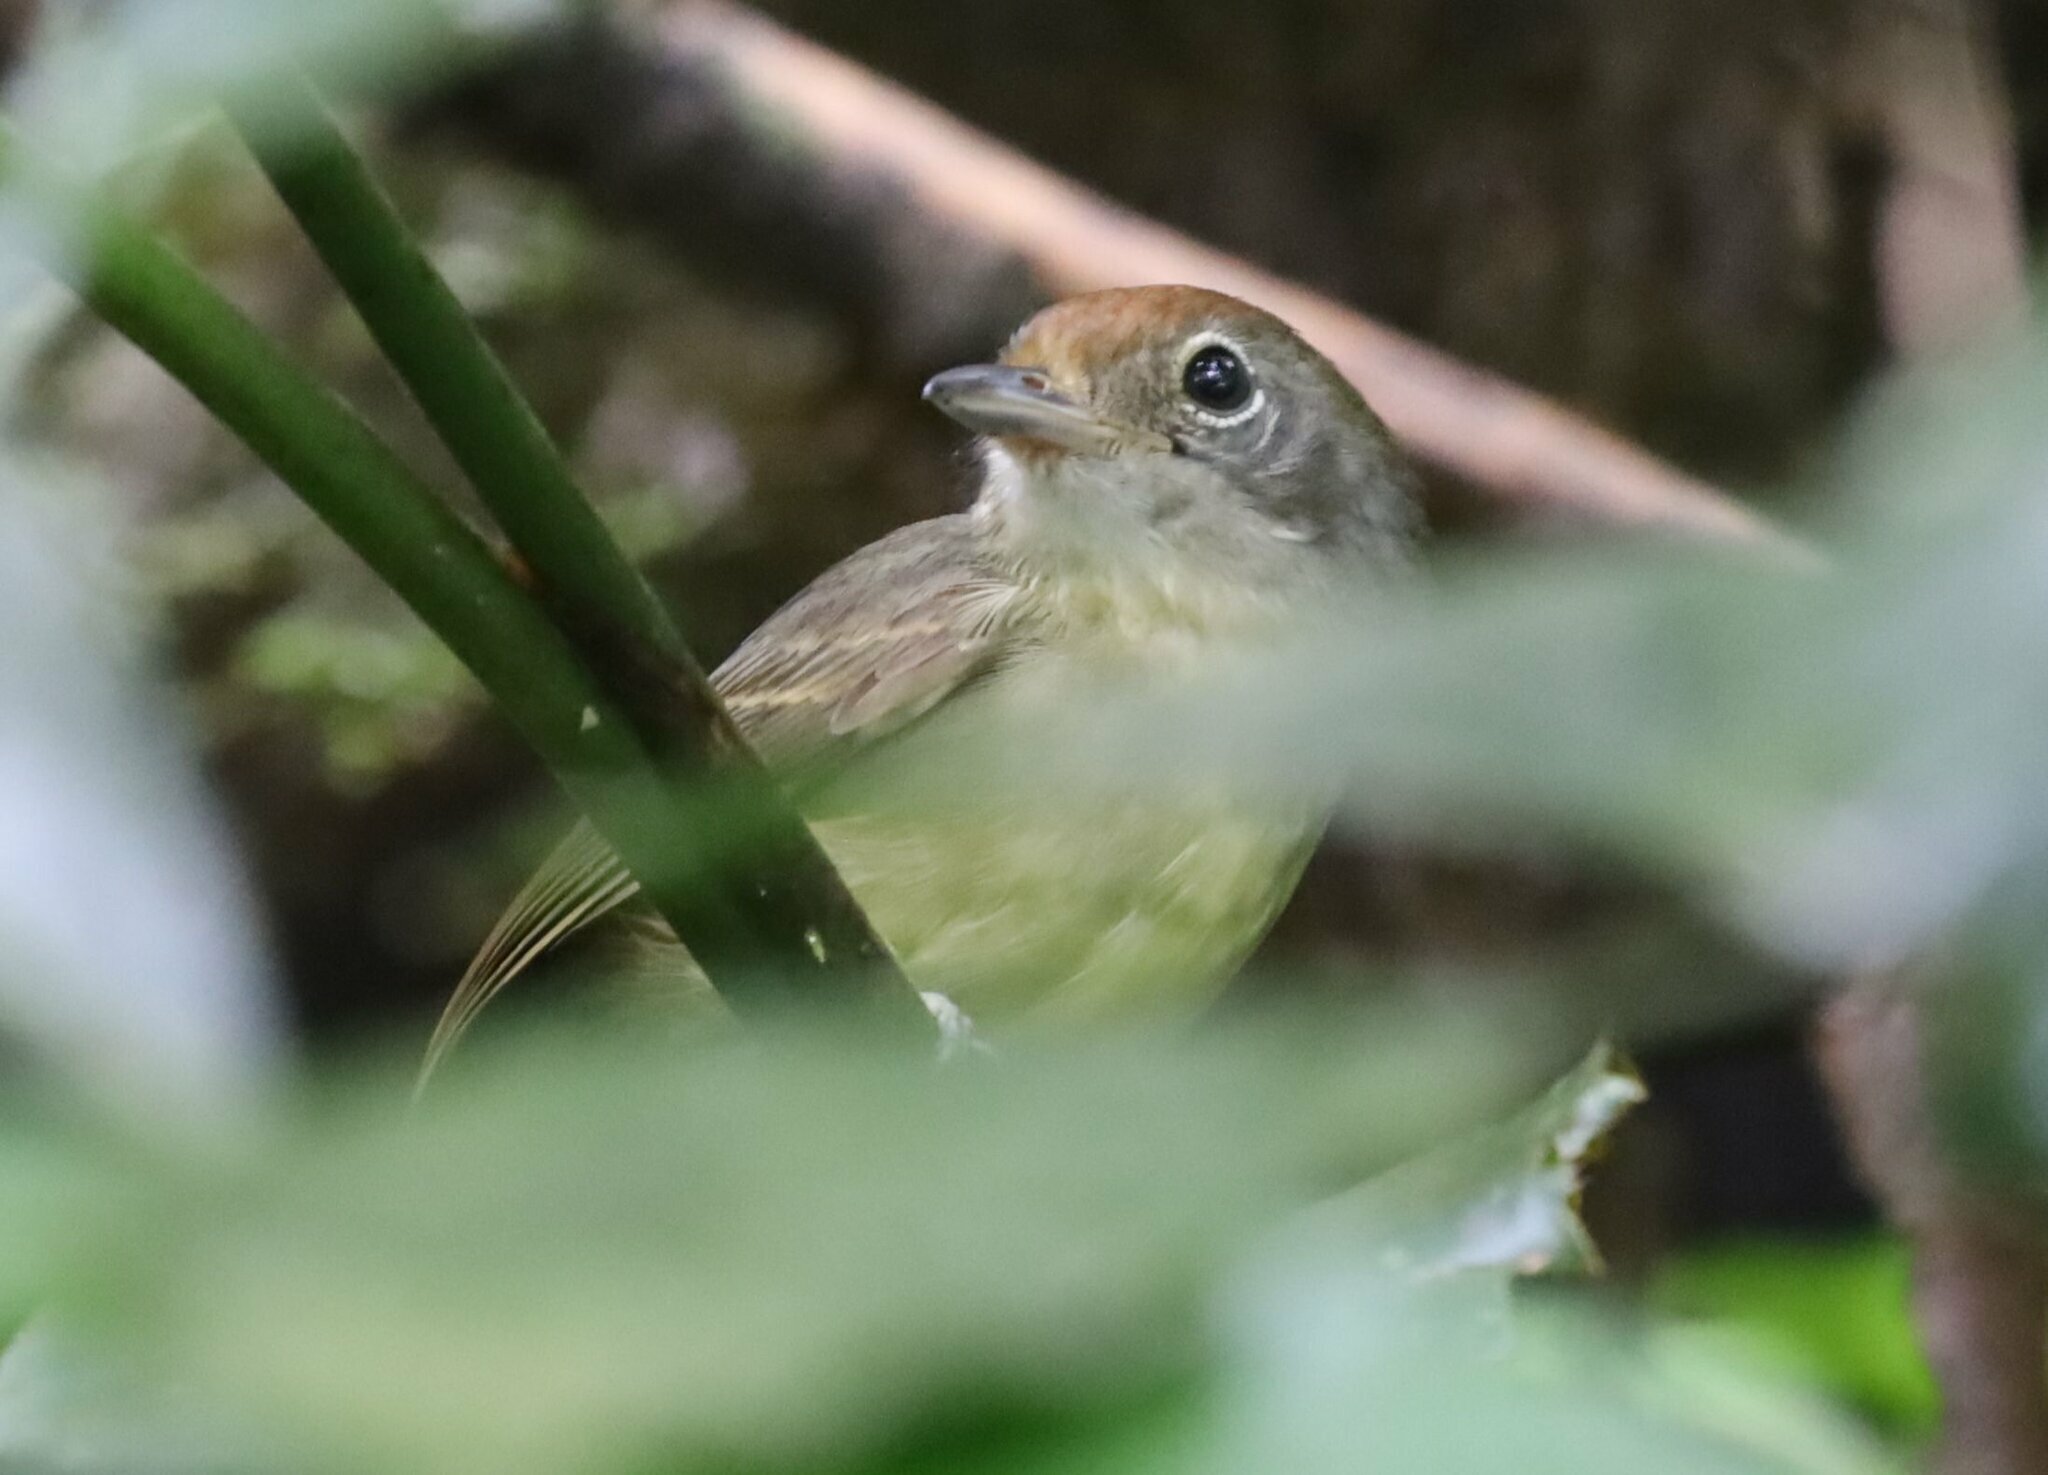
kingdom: Animalia
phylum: Chordata
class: Aves
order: Passeriformes
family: Thamnophilidae
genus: Dysithamnus
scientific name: Dysithamnus mentalis
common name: Plain antvireo
